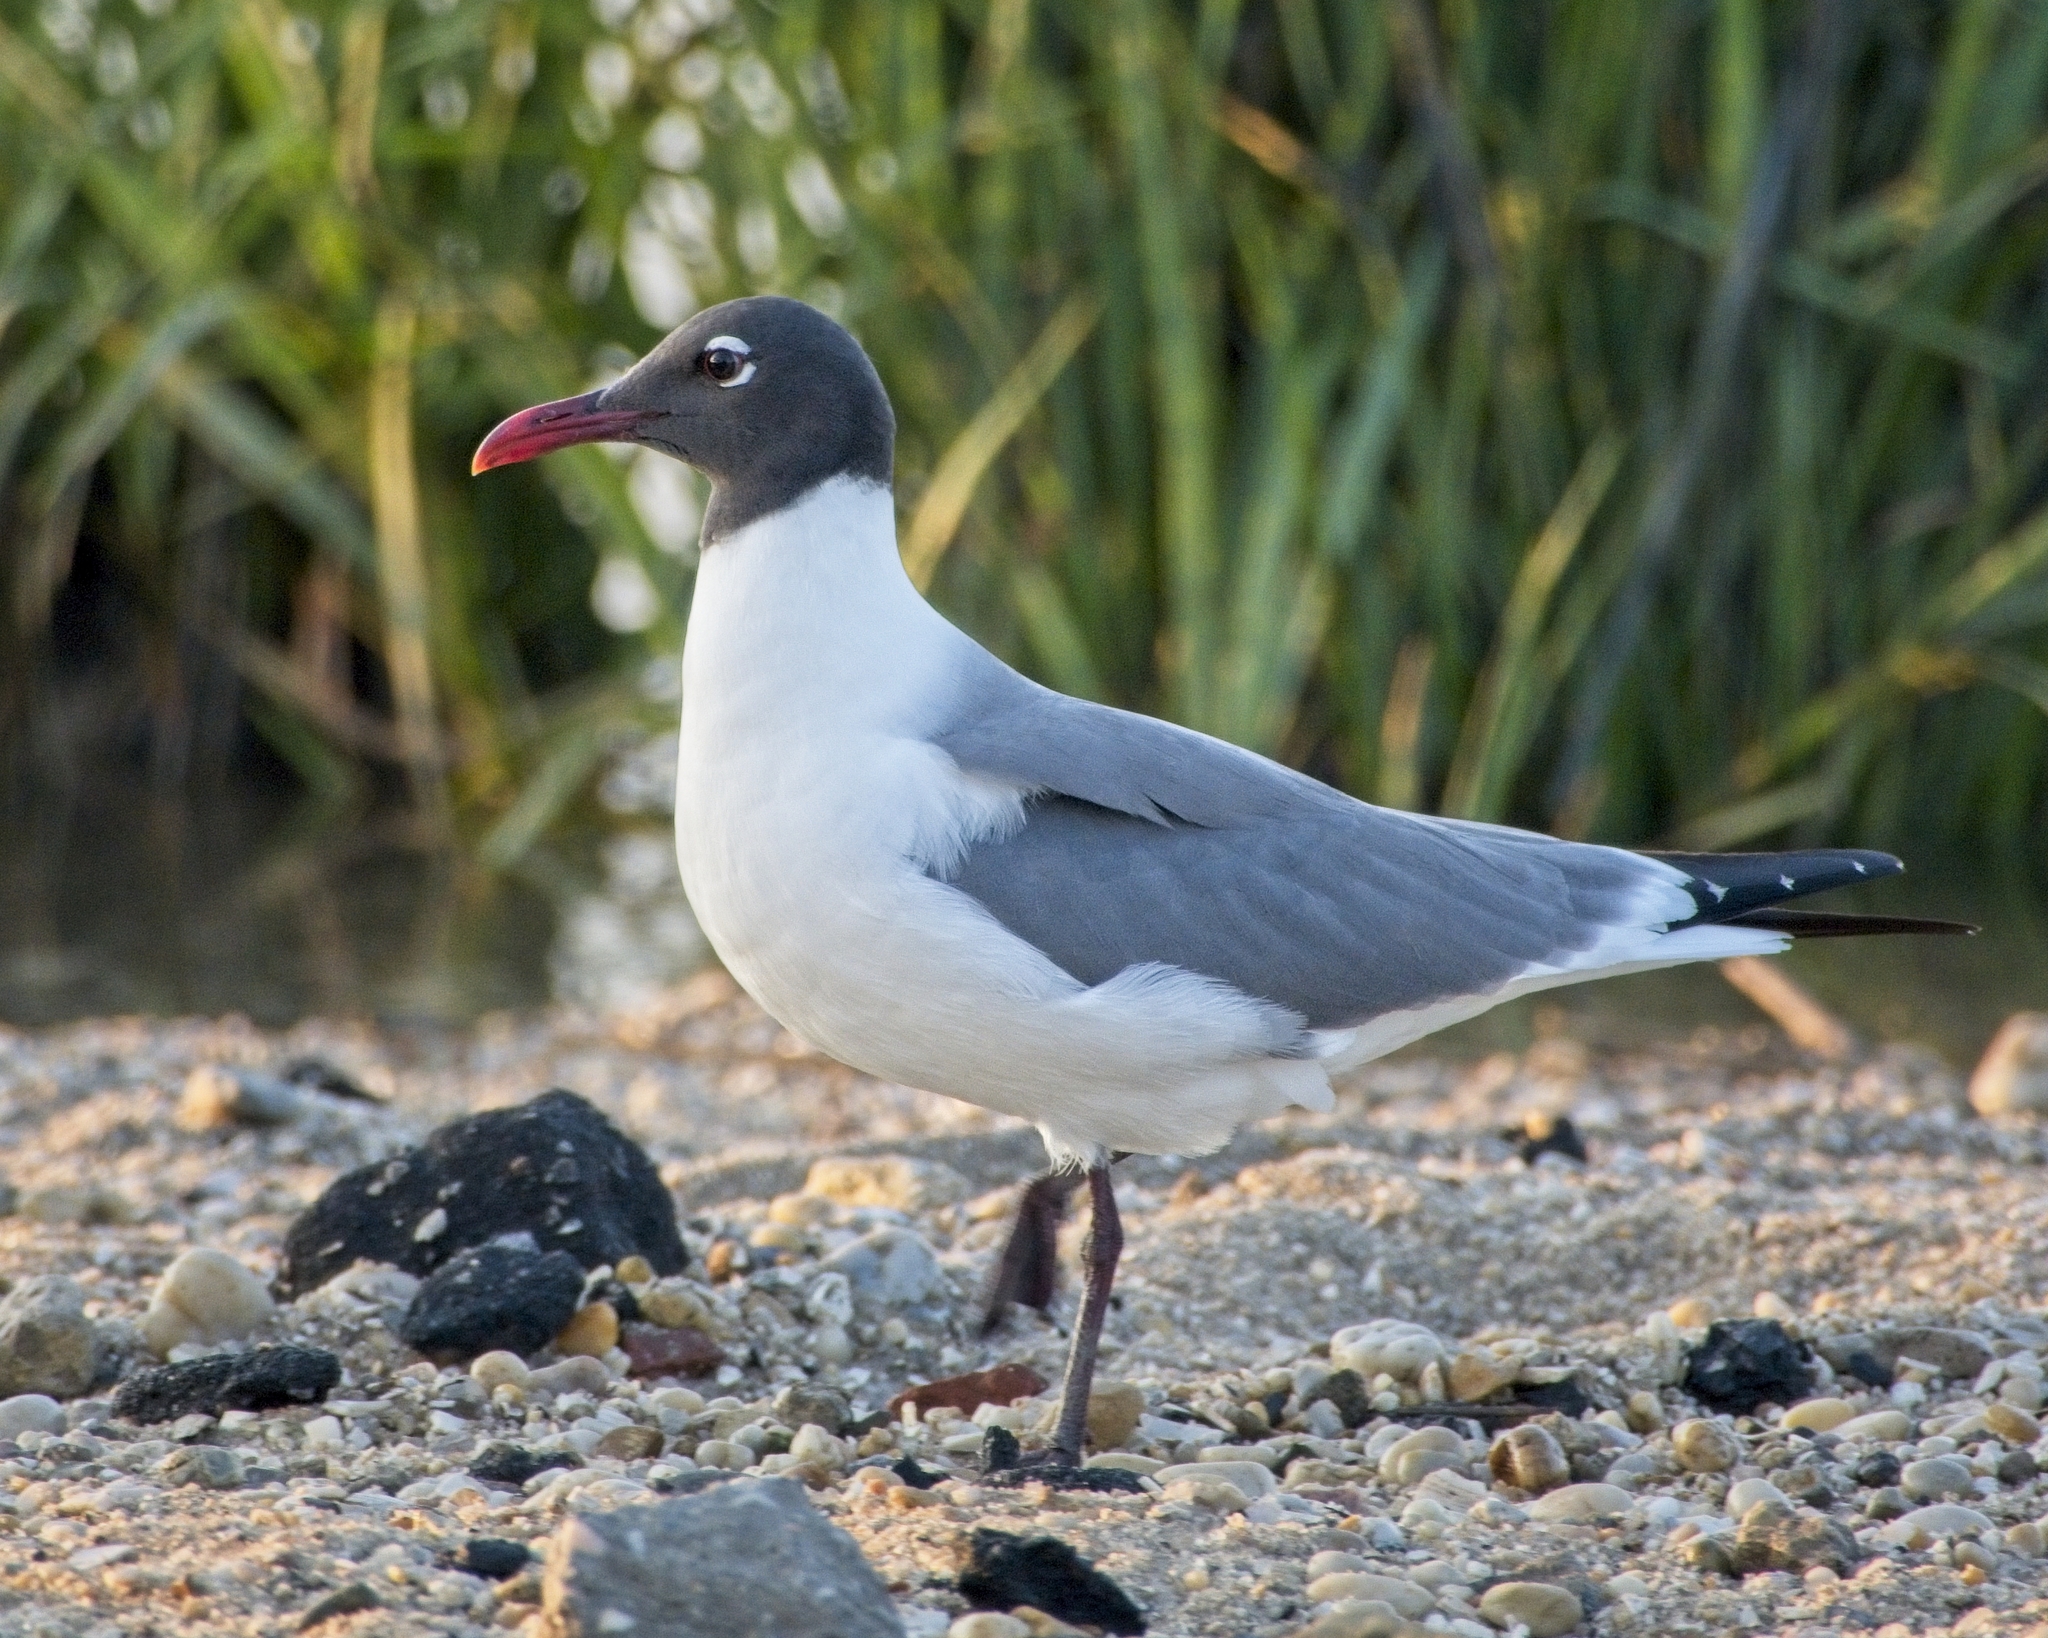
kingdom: Animalia
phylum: Chordata
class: Aves
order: Charadriiformes
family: Laridae
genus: Leucophaeus
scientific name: Leucophaeus atricilla
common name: Laughing gull
